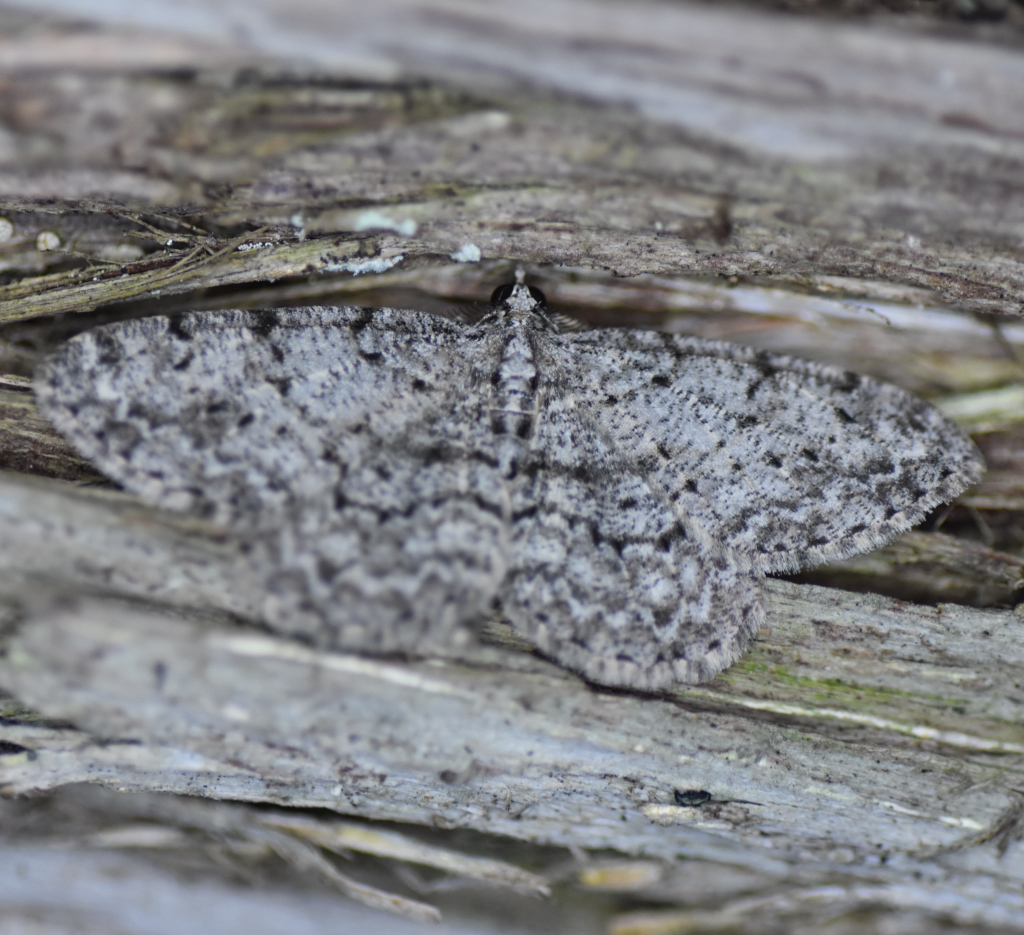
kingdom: Animalia
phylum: Arthropoda
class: Insecta
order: Lepidoptera
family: Geometridae
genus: Protoboarmia
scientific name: Protoboarmia porcelaria
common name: Porcelain gray
